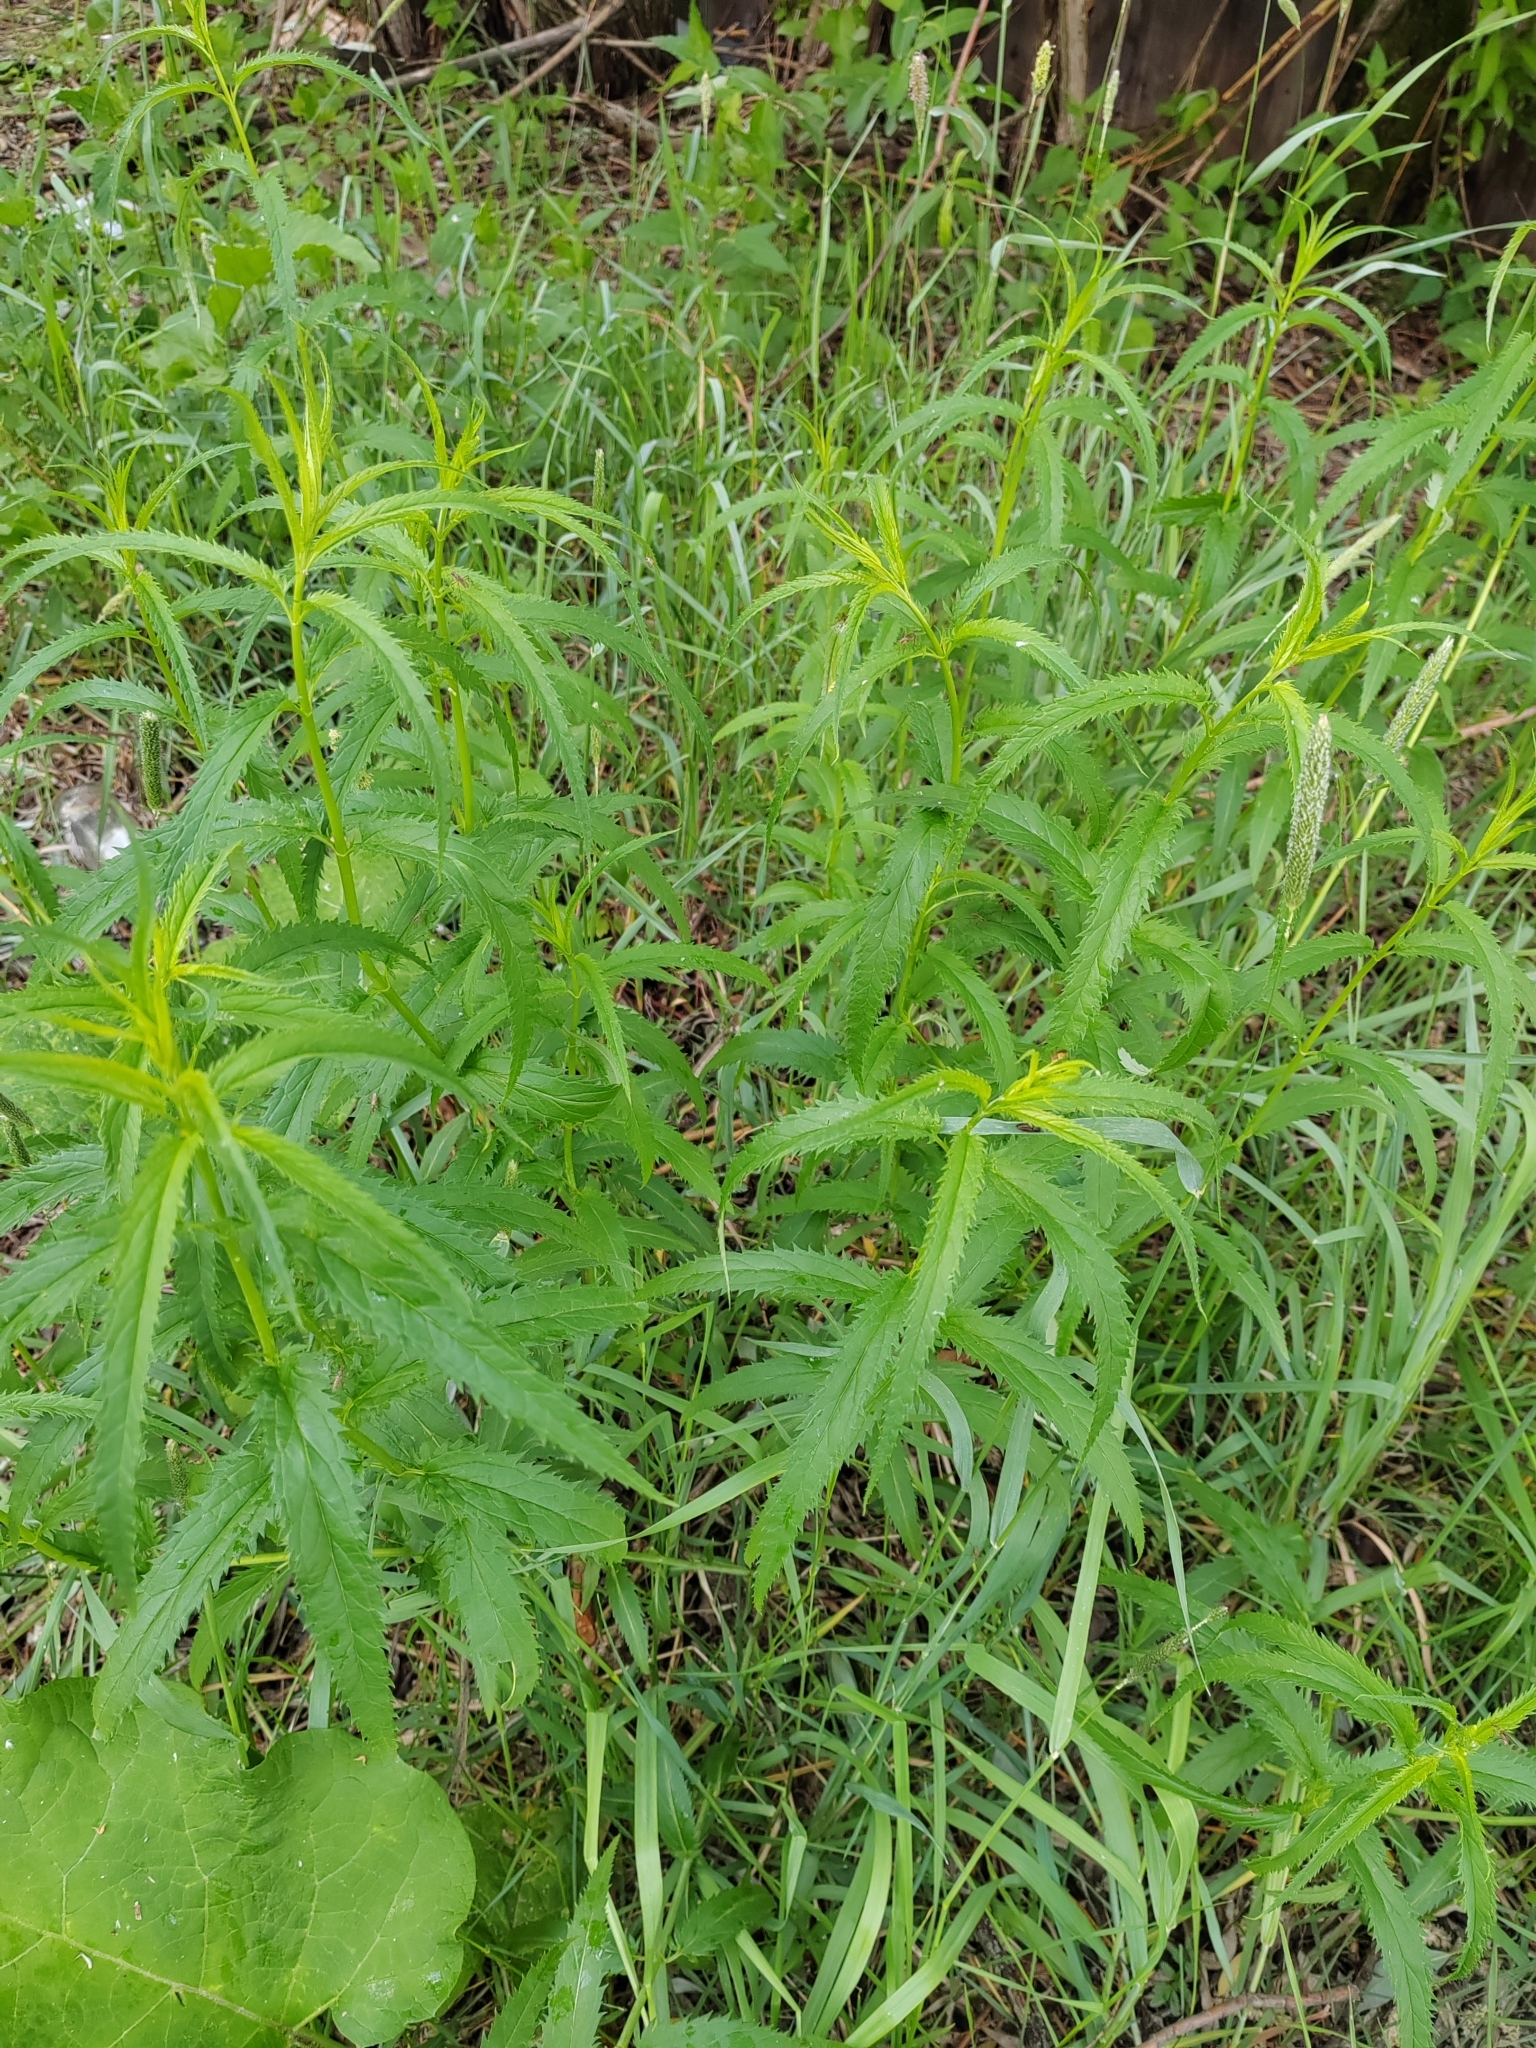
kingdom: Plantae
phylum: Tracheophyta
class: Magnoliopsida
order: Lamiales
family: Plantaginaceae
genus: Veronica
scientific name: Veronica longifolia
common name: Garden speedwell
